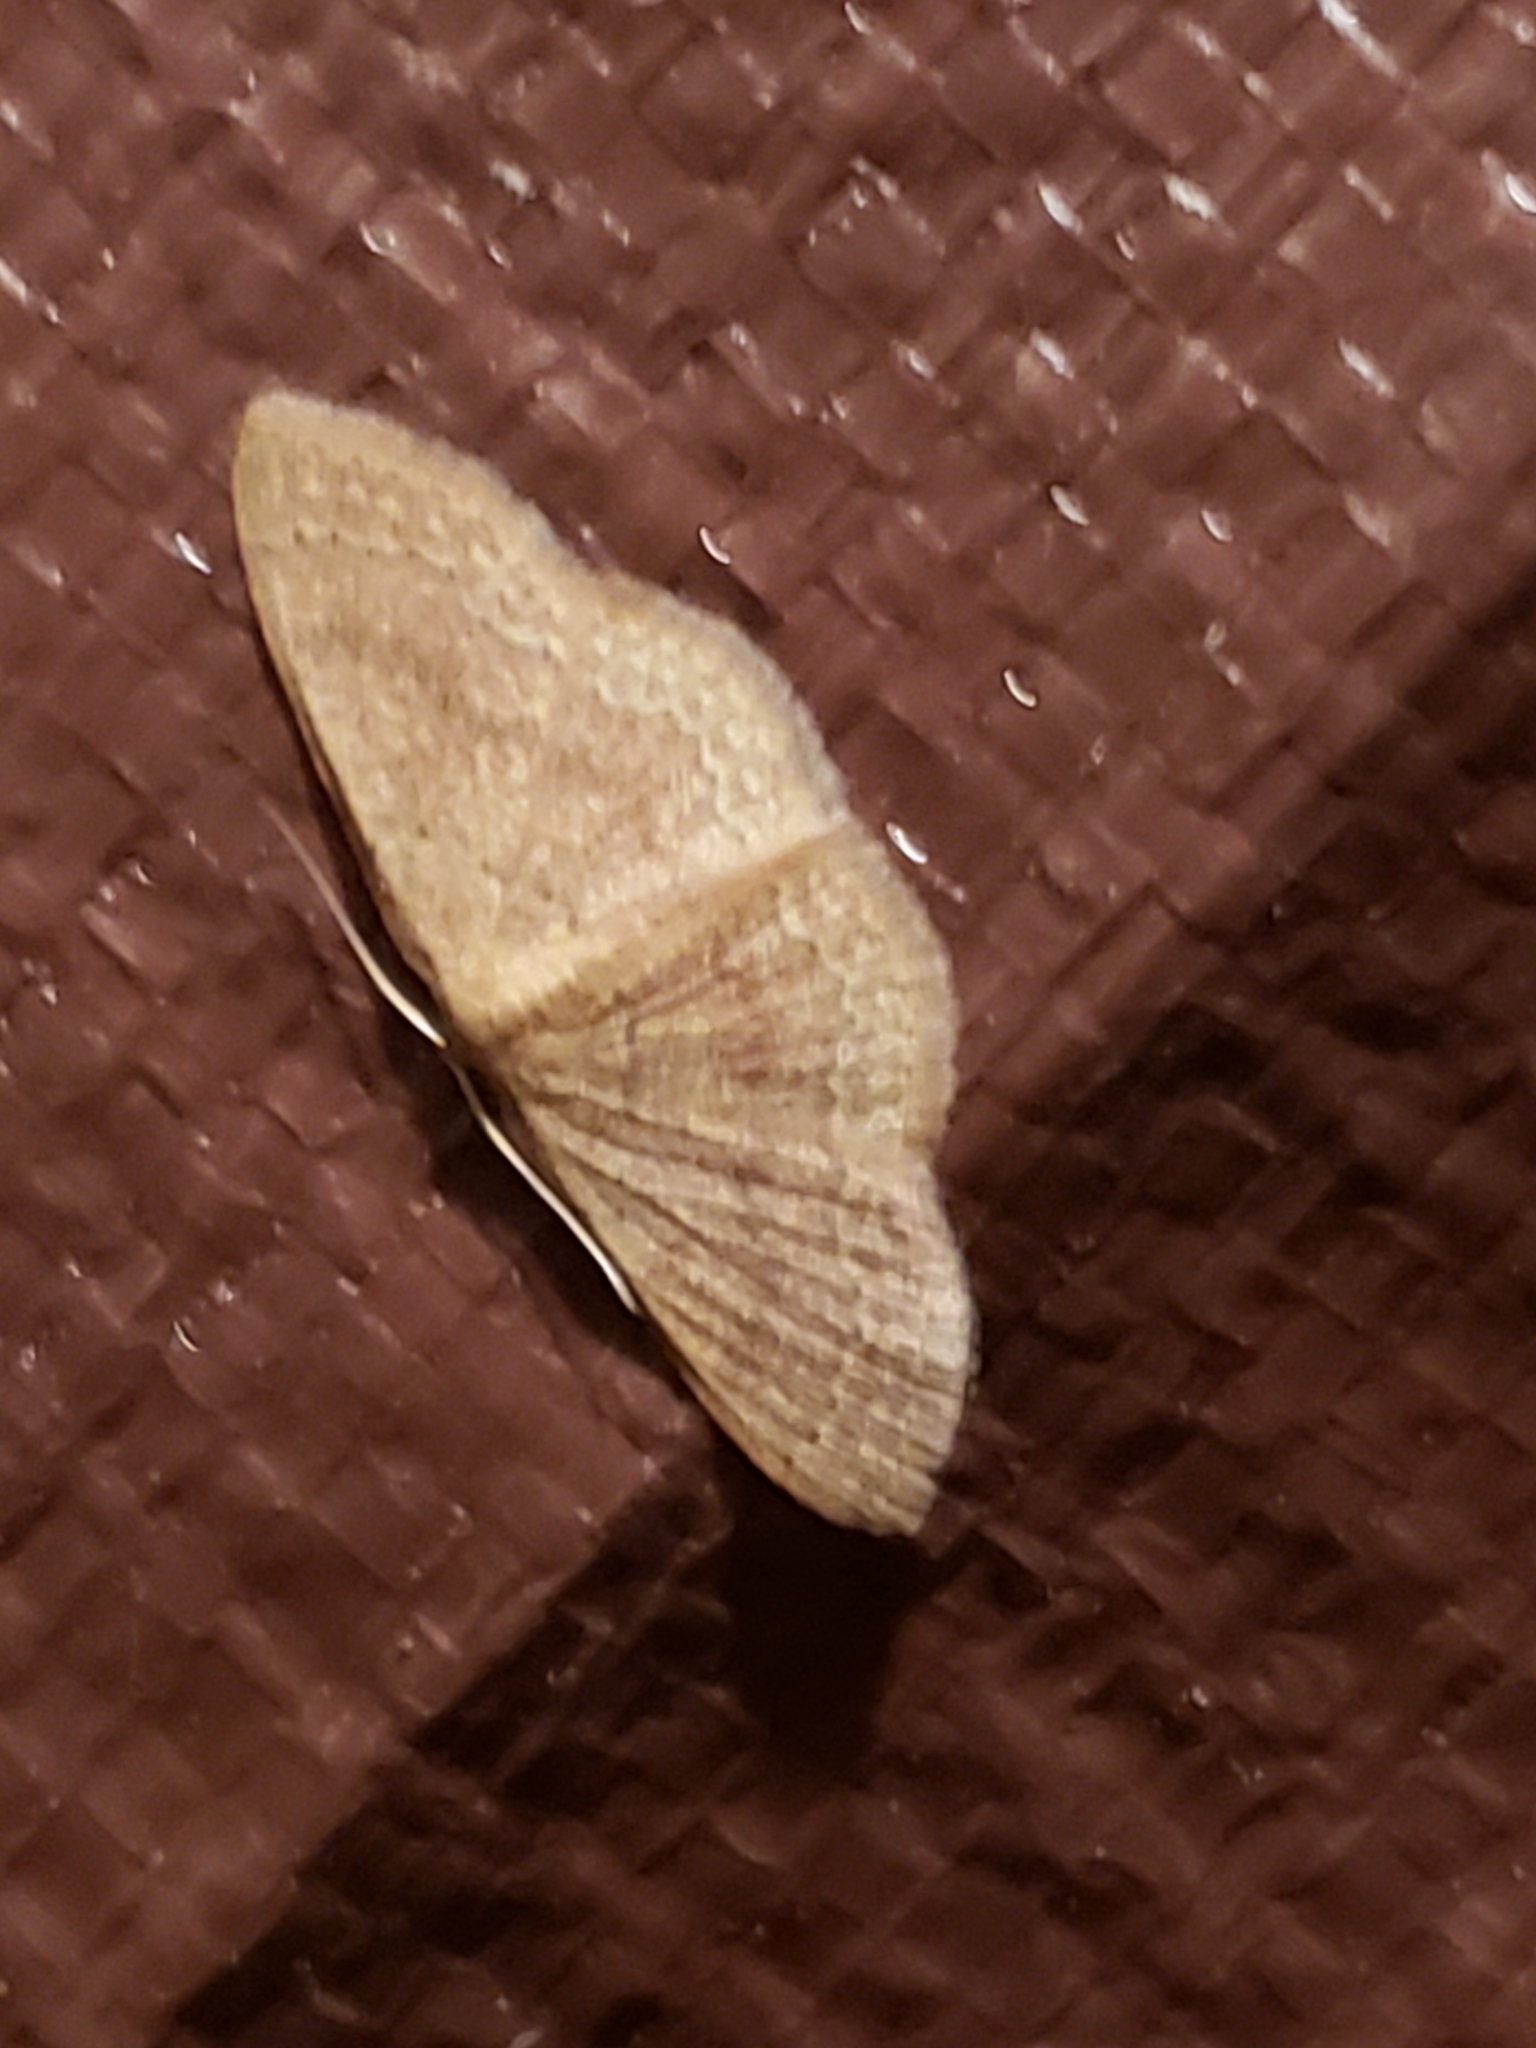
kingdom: Animalia
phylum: Arthropoda
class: Insecta
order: Lepidoptera
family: Geometridae
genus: Pleuroprucha
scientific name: Pleuroprucha insulsaria
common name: Common tan wave
